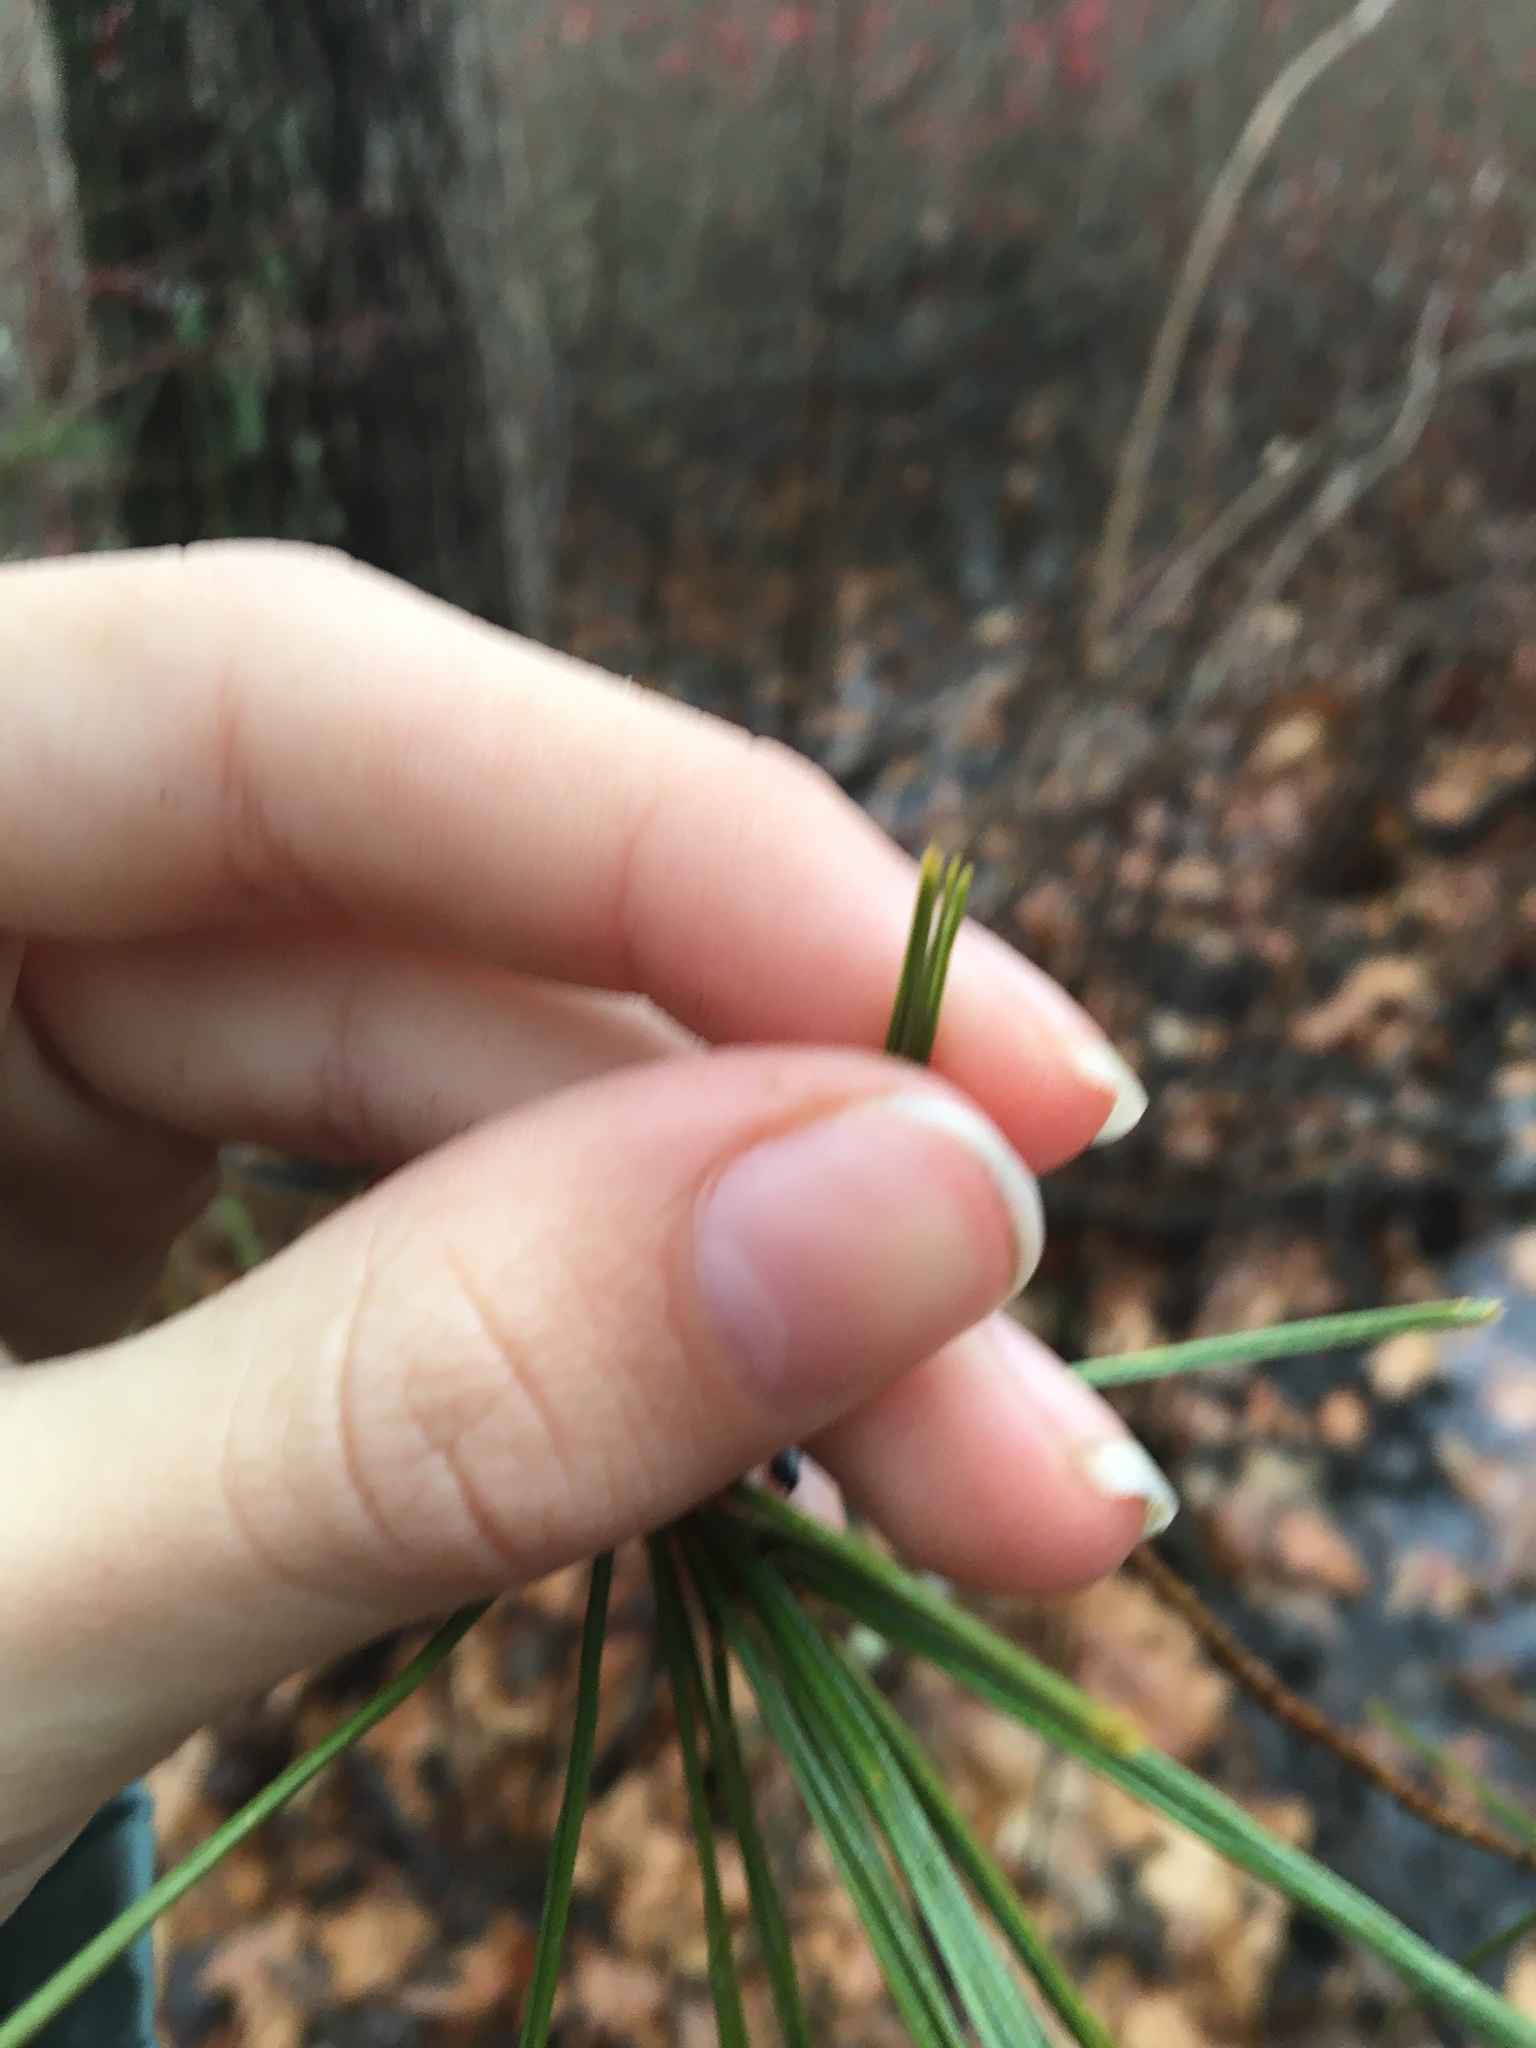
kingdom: Plantae
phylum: Tracheophyta
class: Pinopsida
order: Pinales
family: Pinaceae
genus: Pinus
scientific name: Pinus strobus
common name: Weymouth pine
